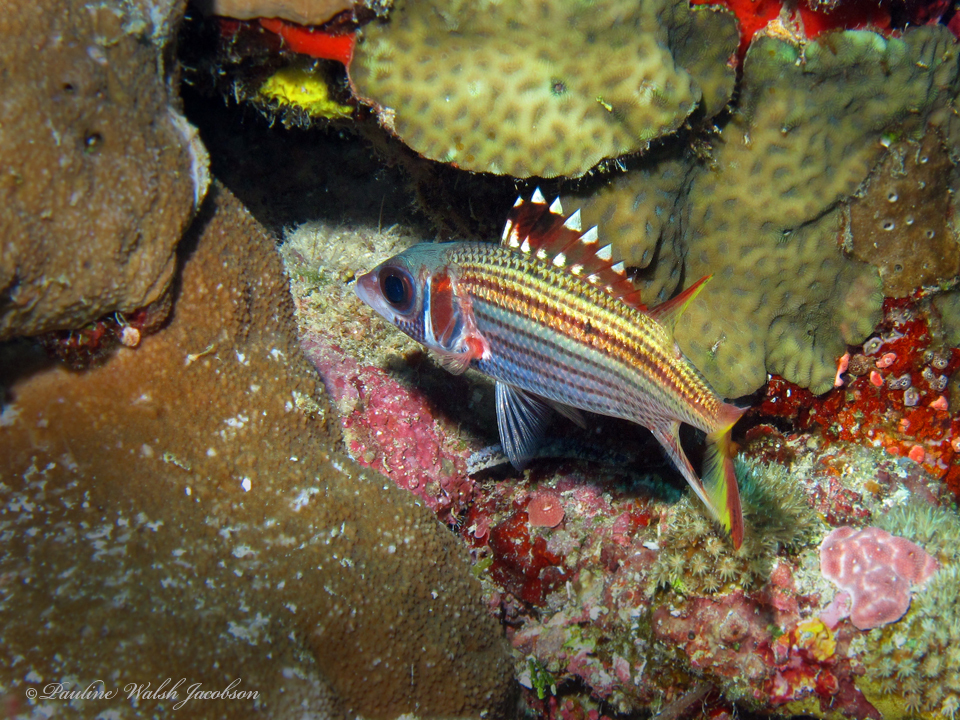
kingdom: Animalia
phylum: Chordata
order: Beryciformes
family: Holocentridae
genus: Neoniphon
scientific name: Neoniphon sammara
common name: Sammara squirrelfish
